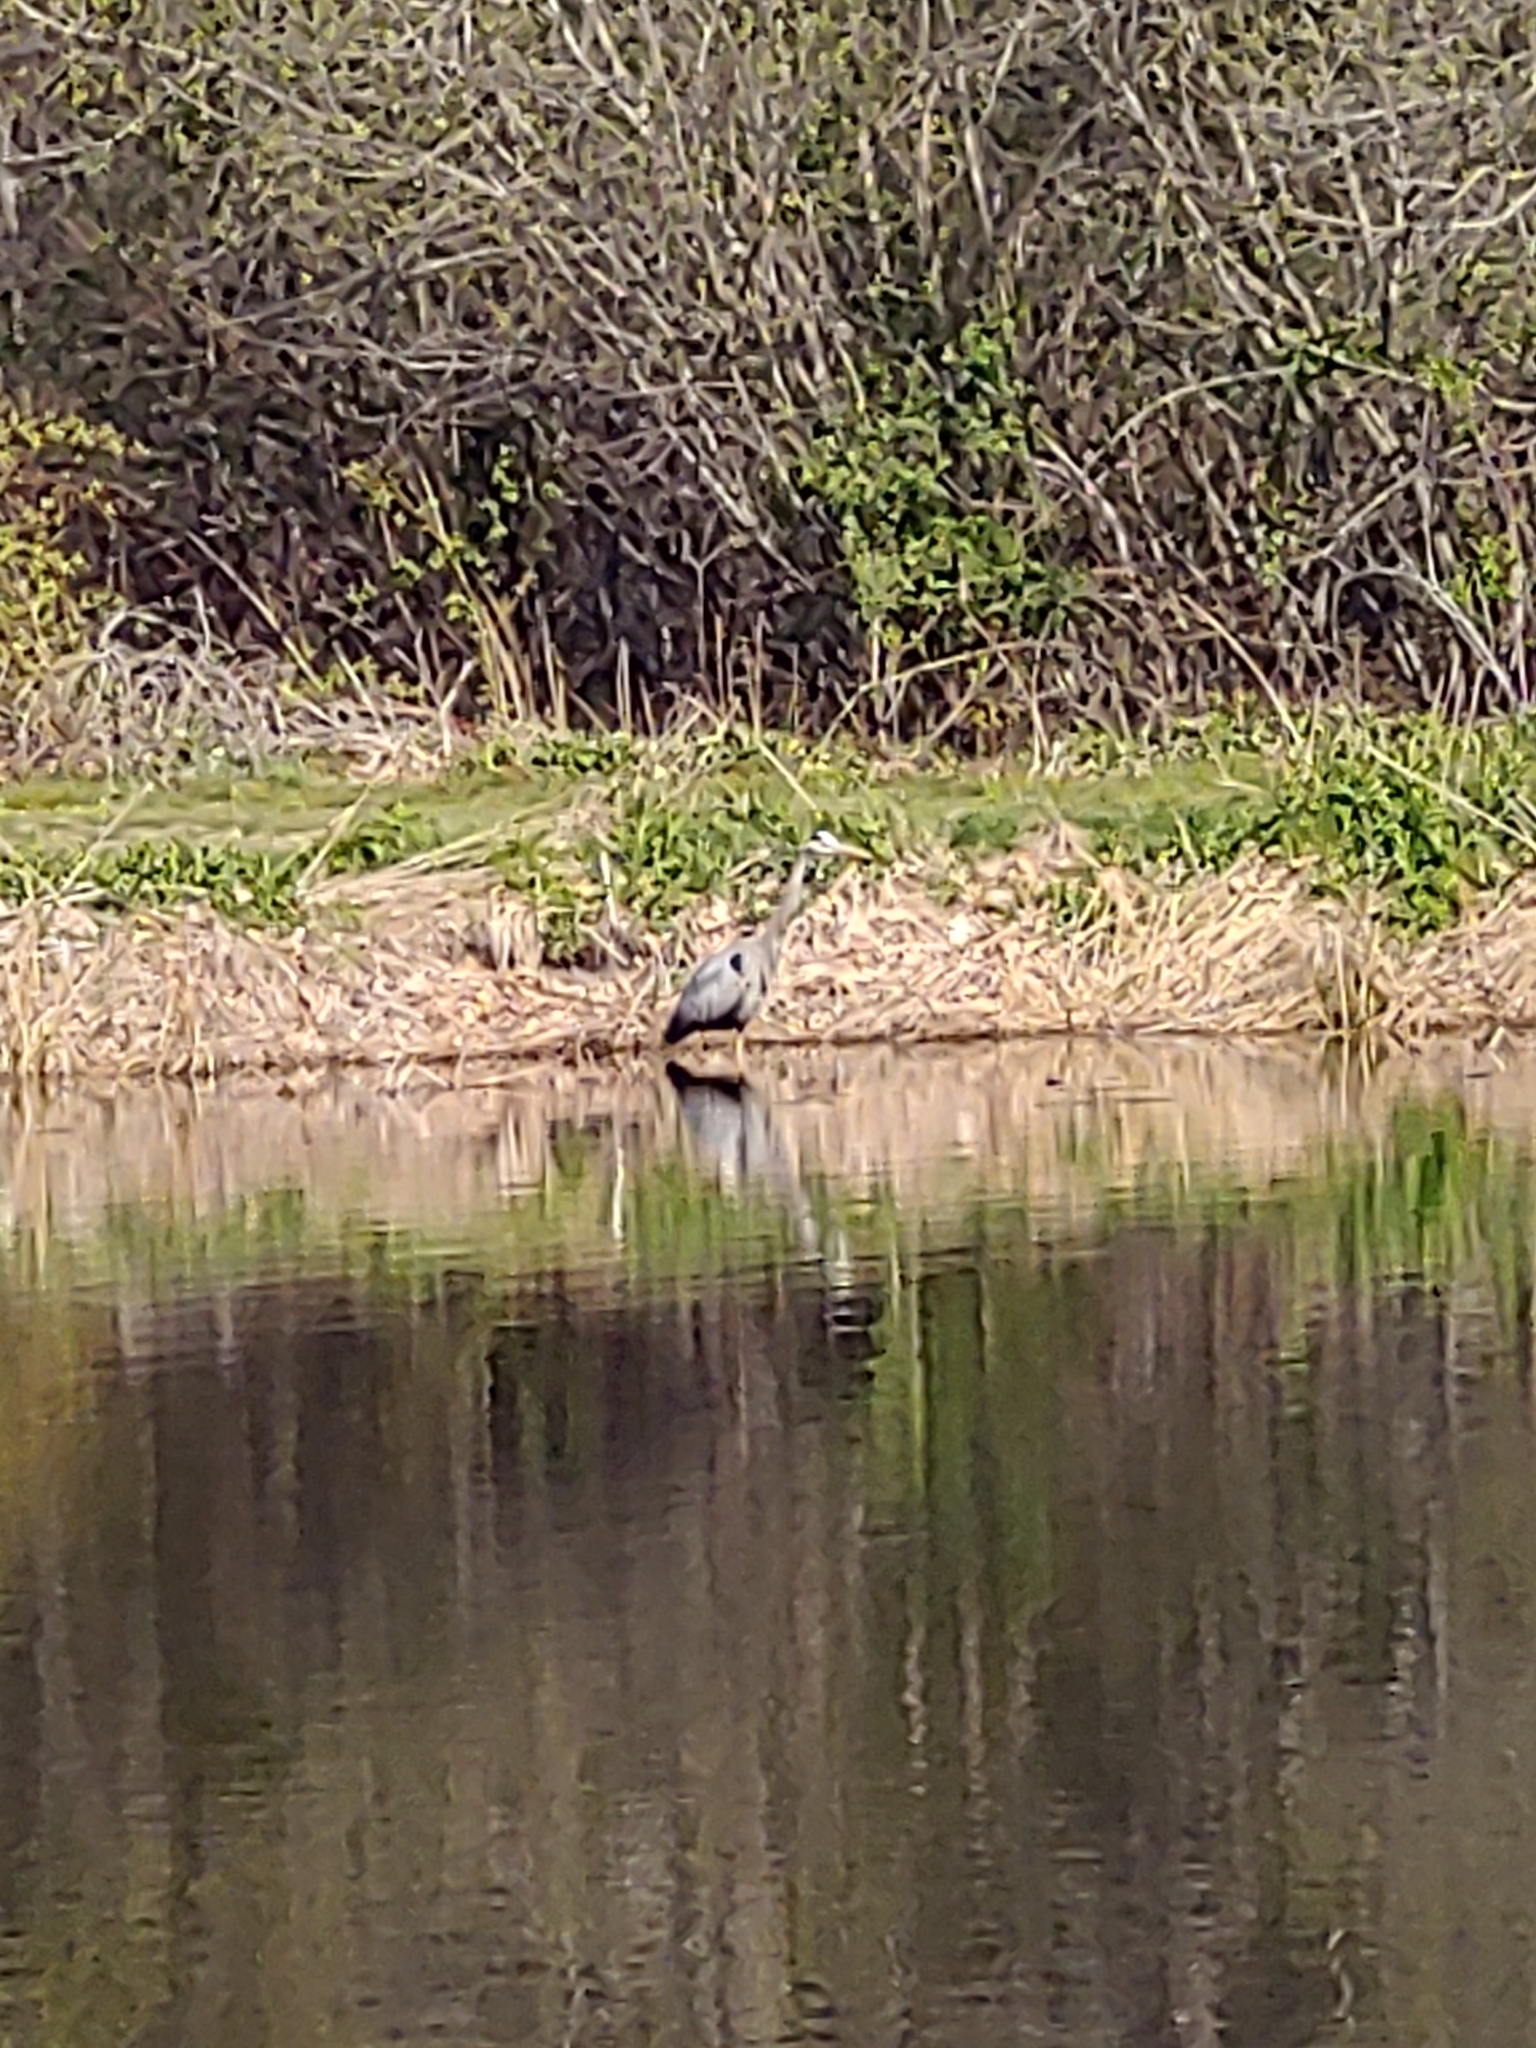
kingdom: Animalia
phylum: Chordata
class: Aves
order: Pelecaniformes
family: Ardeidae
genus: Ardea
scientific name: Ardea herodias
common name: Great blue heron
